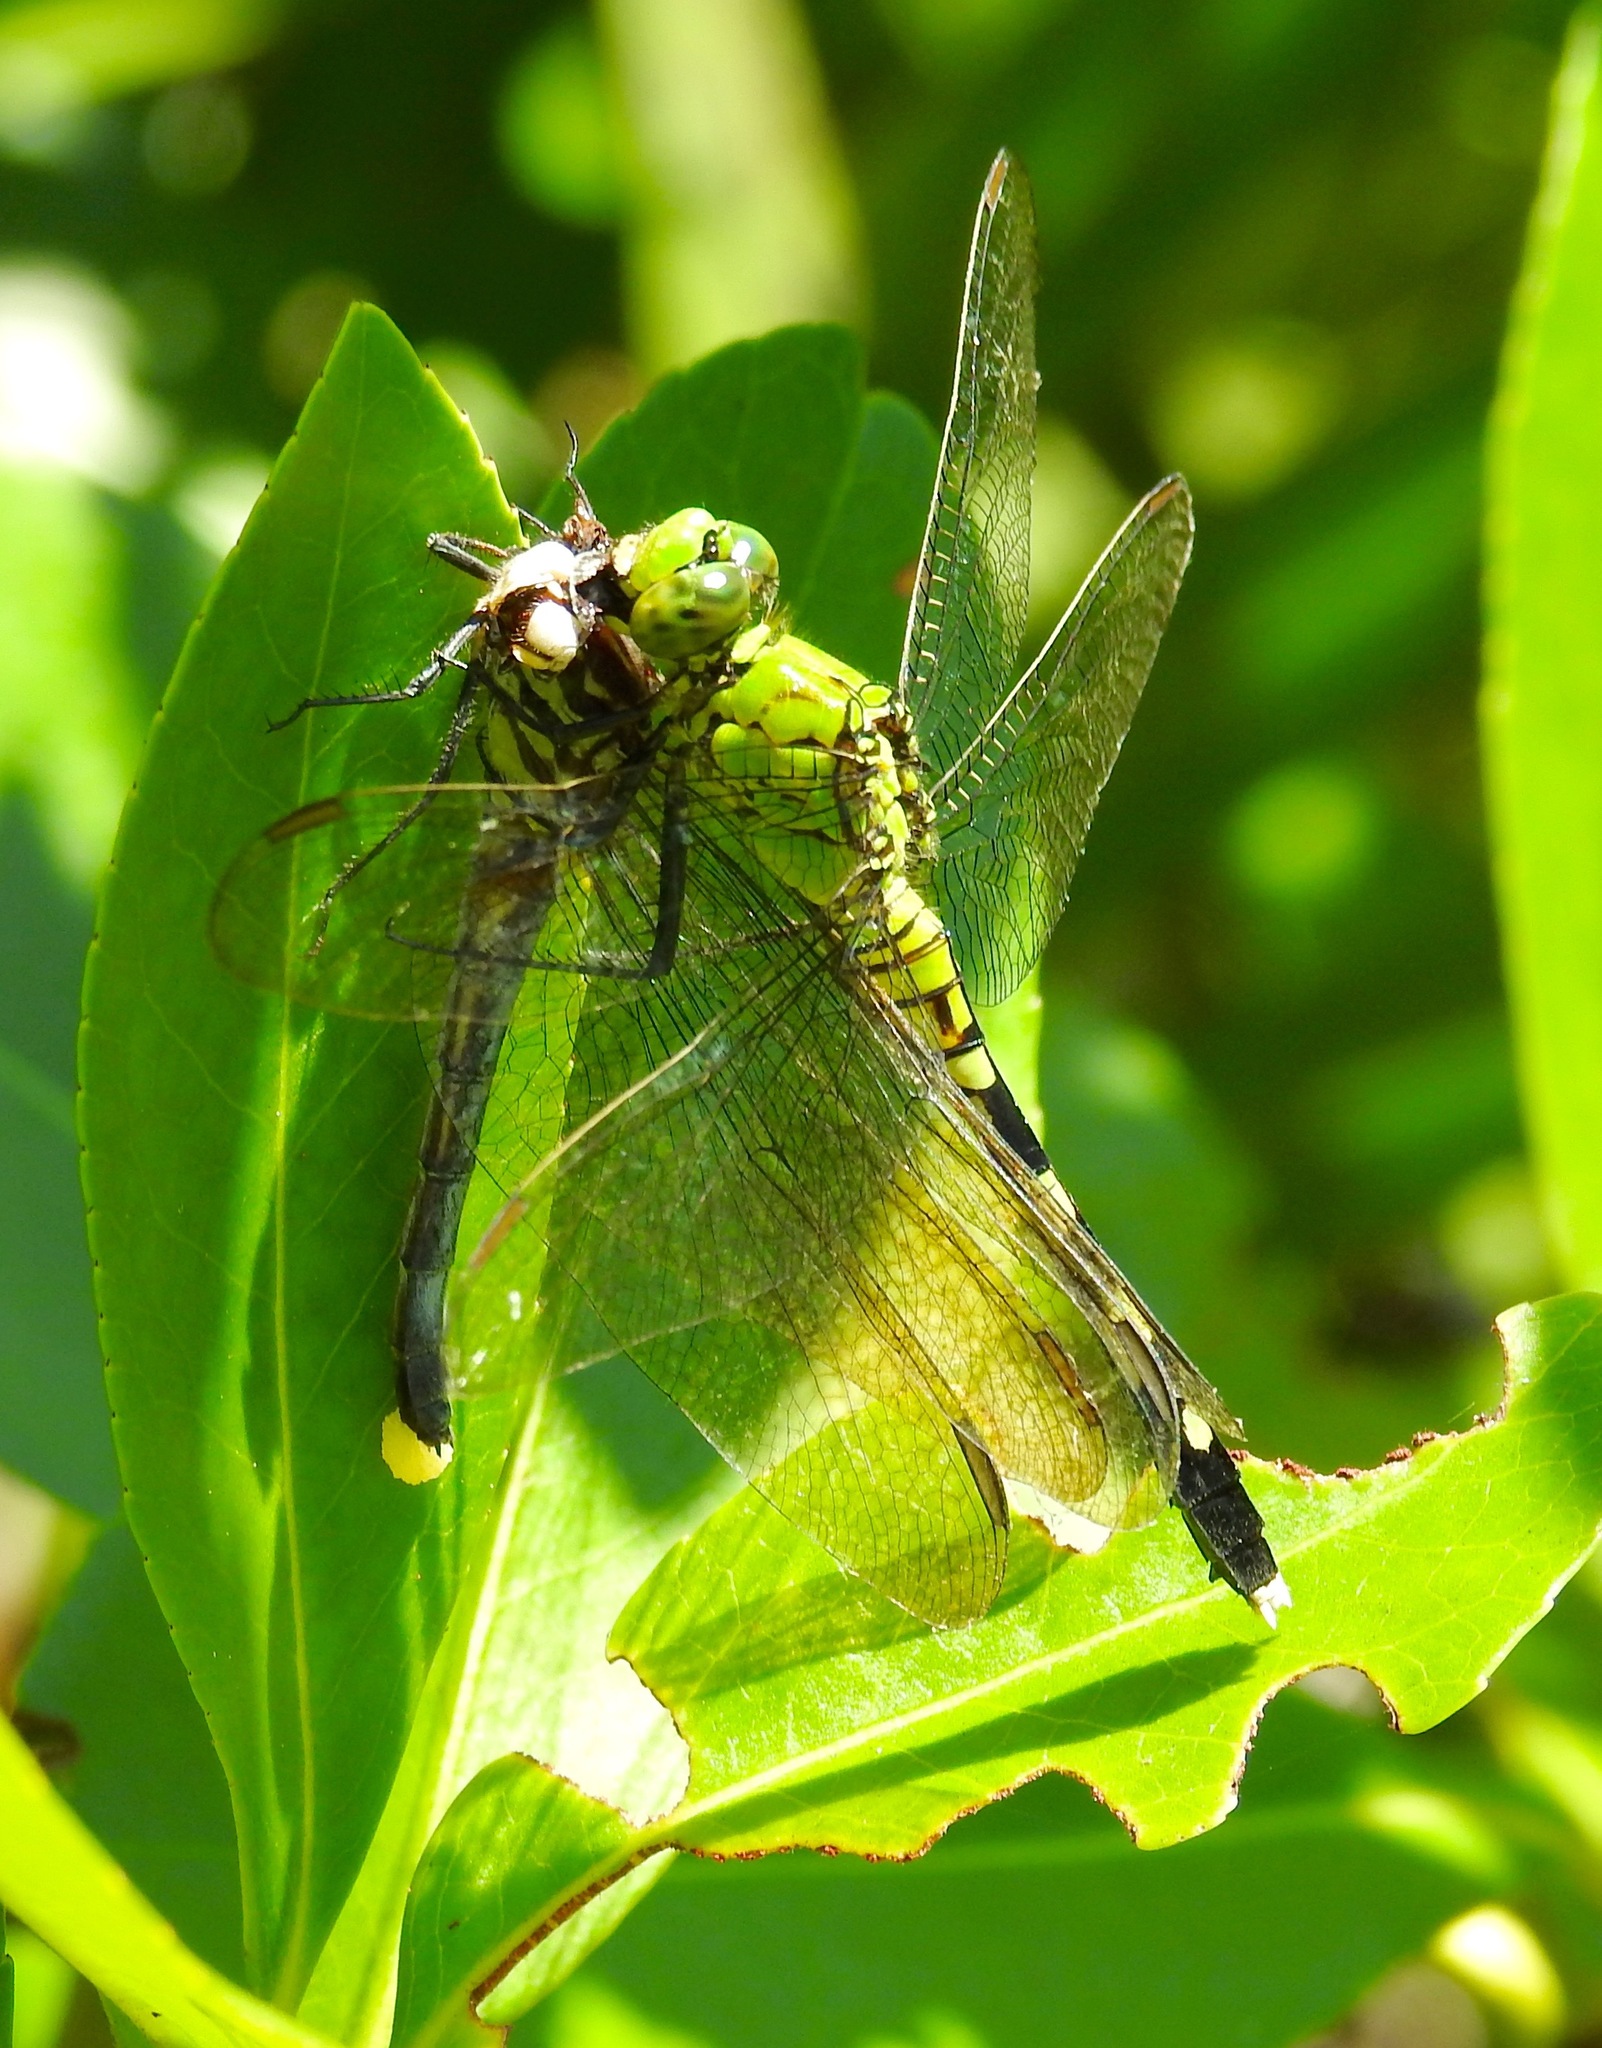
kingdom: Animalia
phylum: Arthropoda
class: Insecta
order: Odonata
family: Libellulidae
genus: Erythemis
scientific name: Erythemis simplicicollis
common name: Eastern pondhawk
